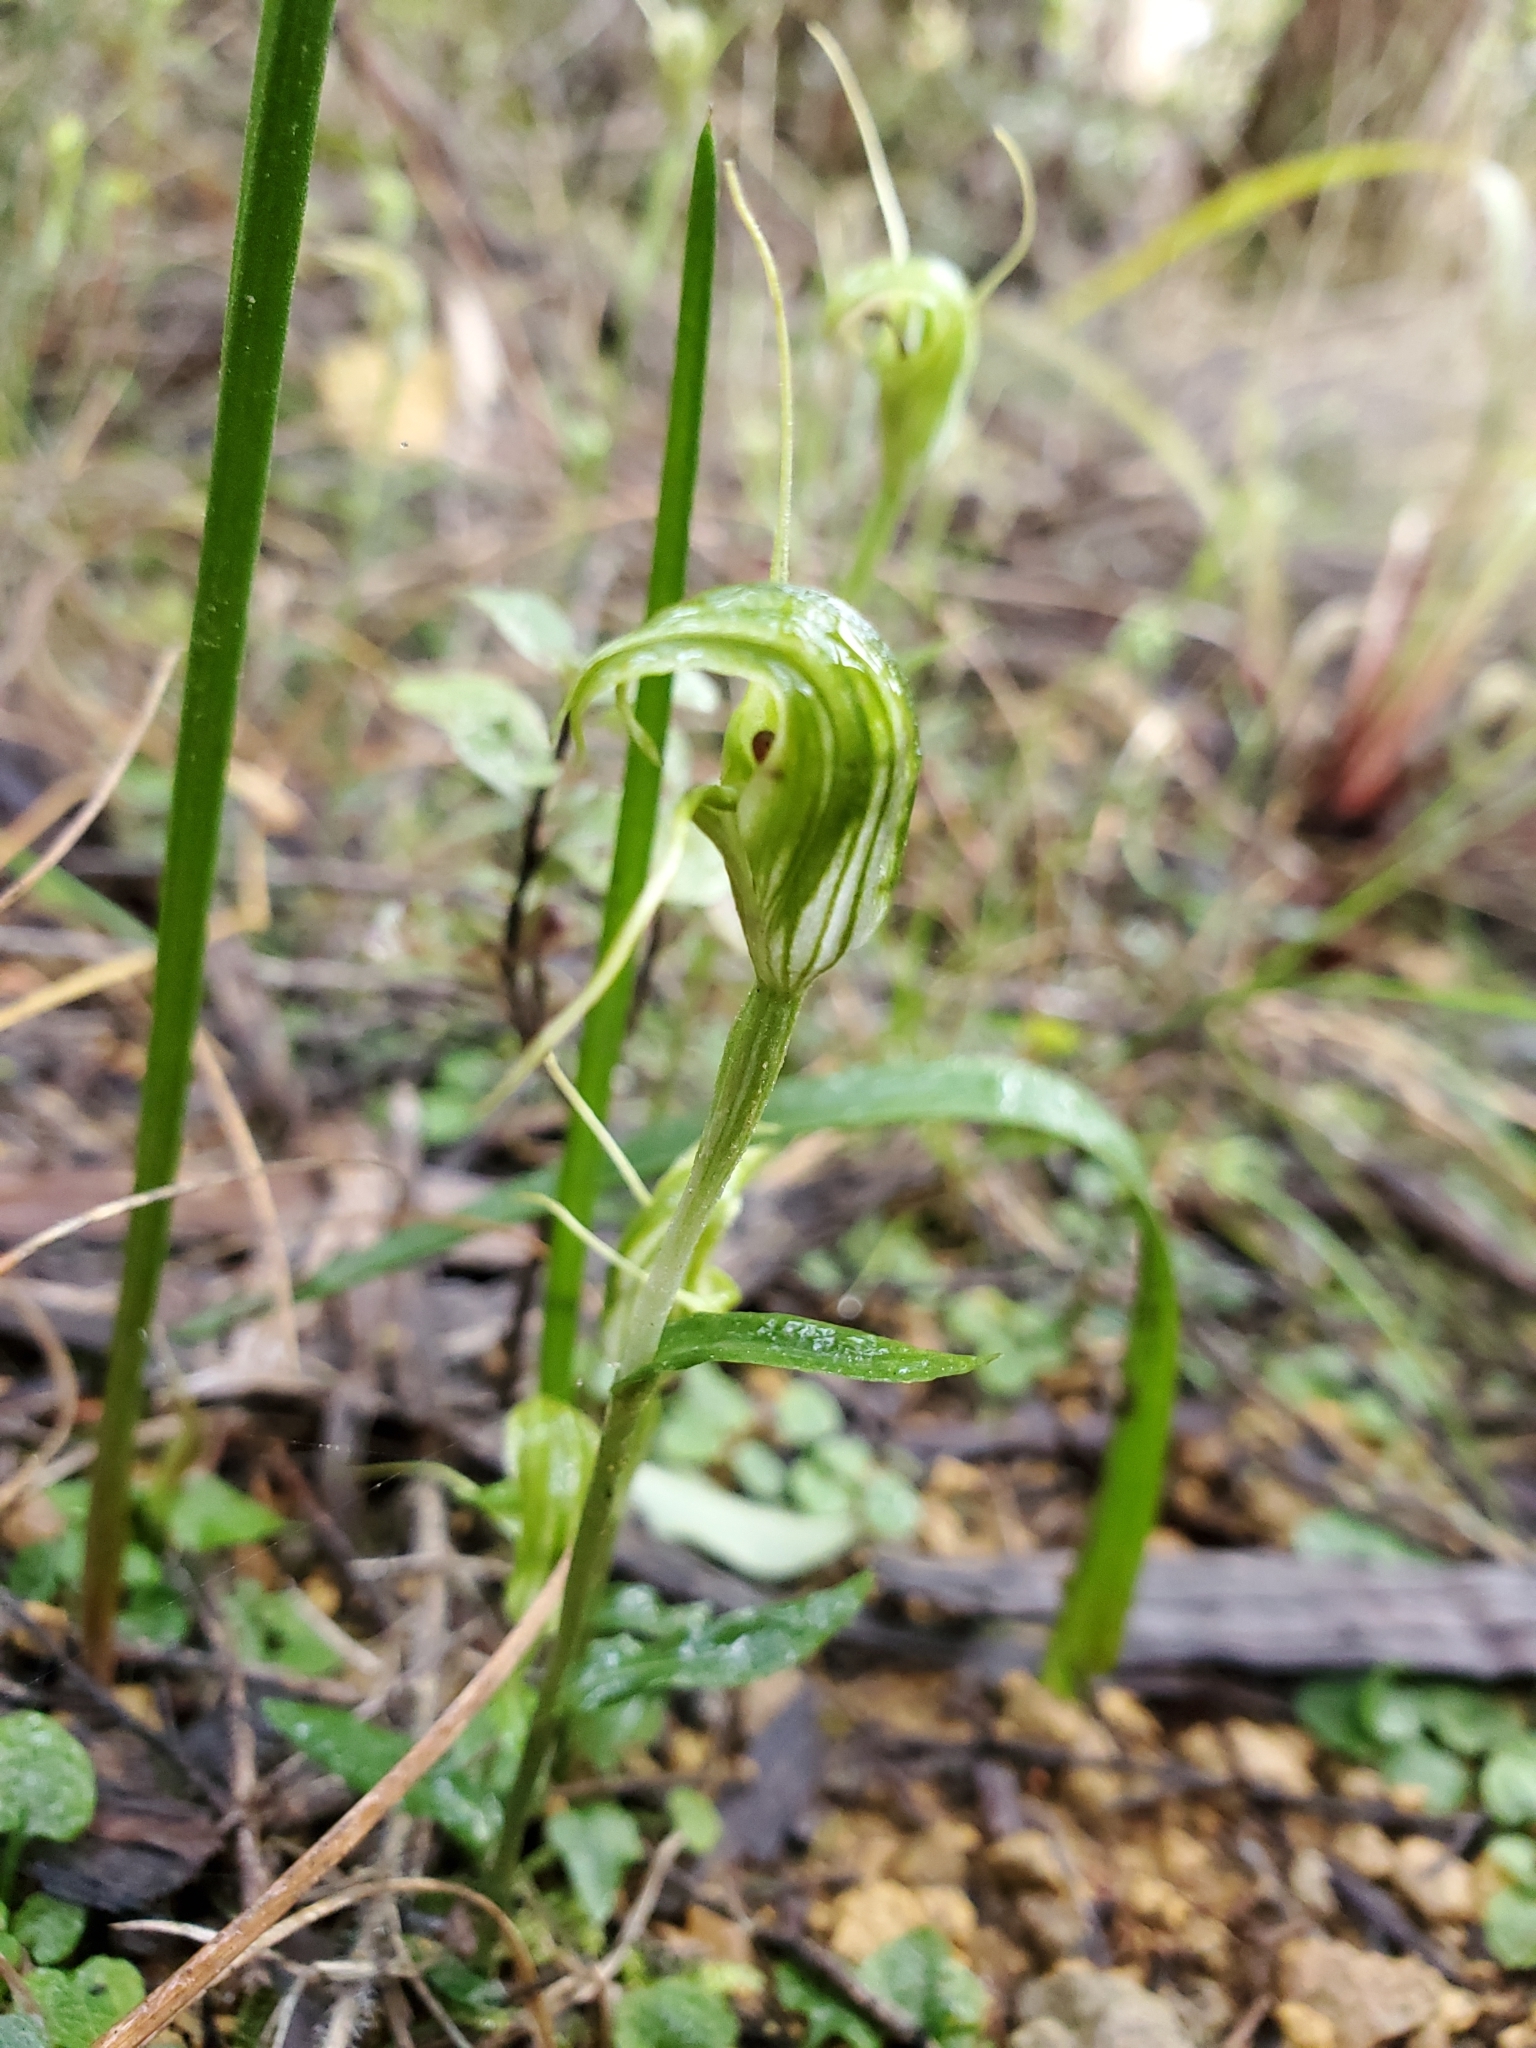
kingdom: Plantae
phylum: Tracheophyta
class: Liliopsida
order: Asparagales
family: Orchidaceae
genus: Pterostylis
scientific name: Pterostylis trullifolia
